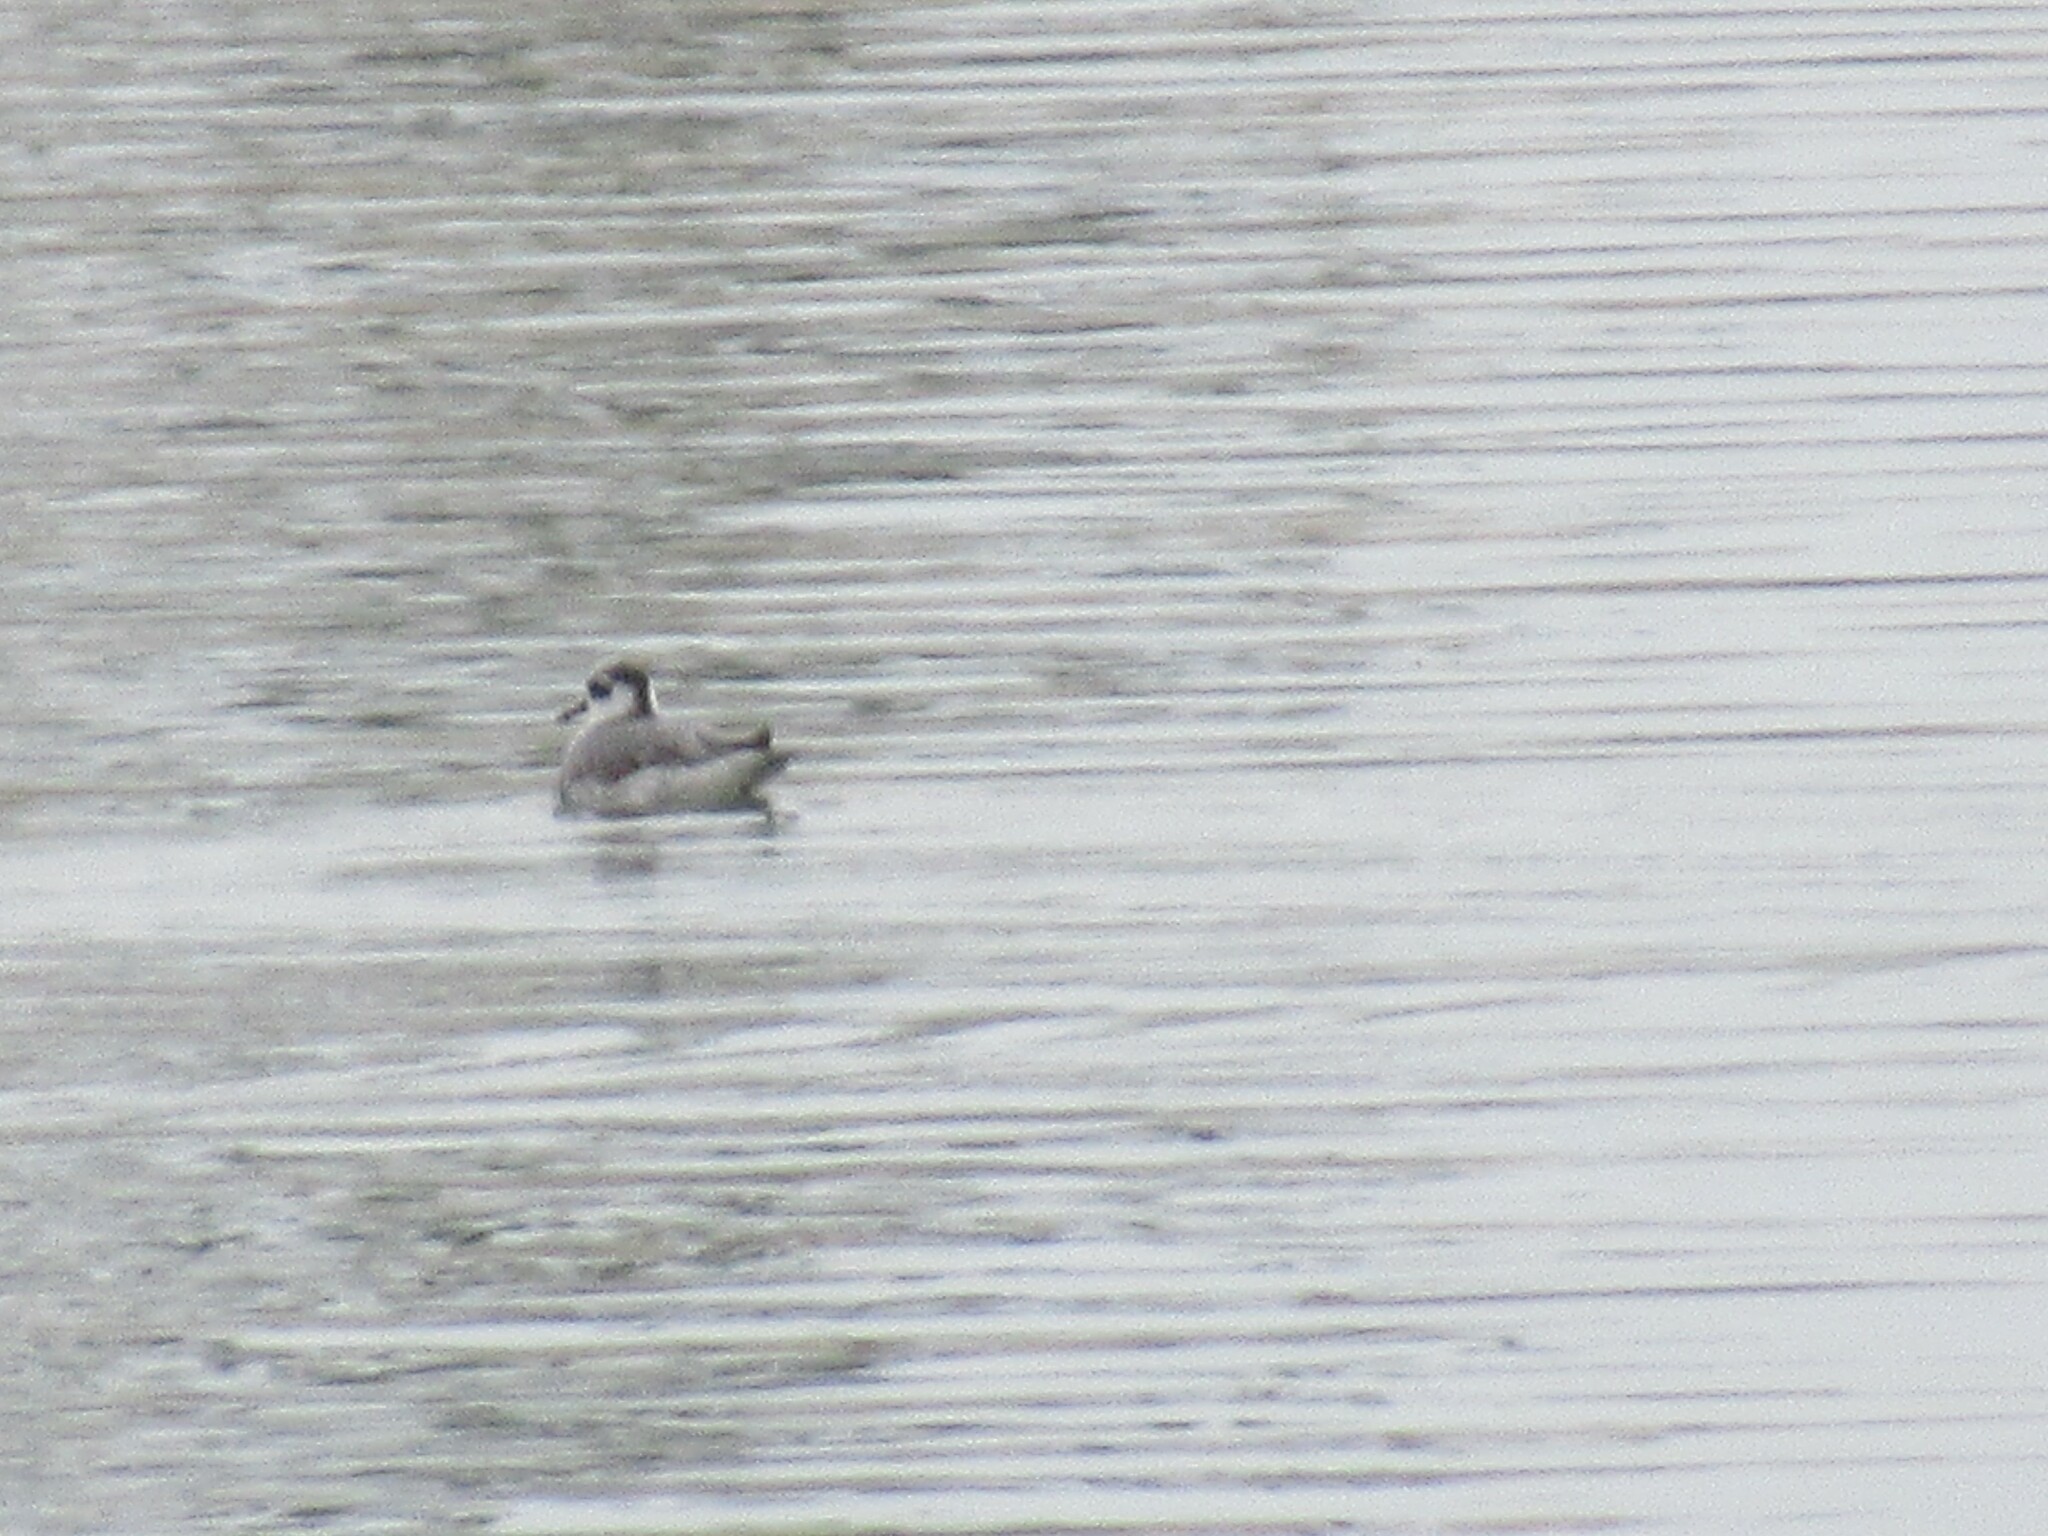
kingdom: Animalia
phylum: Chordata
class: Aves
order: Charadriiformes
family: Scolopacidae
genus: Phalaropus
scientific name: Phalaropus fulicarius
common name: Red phalarope
